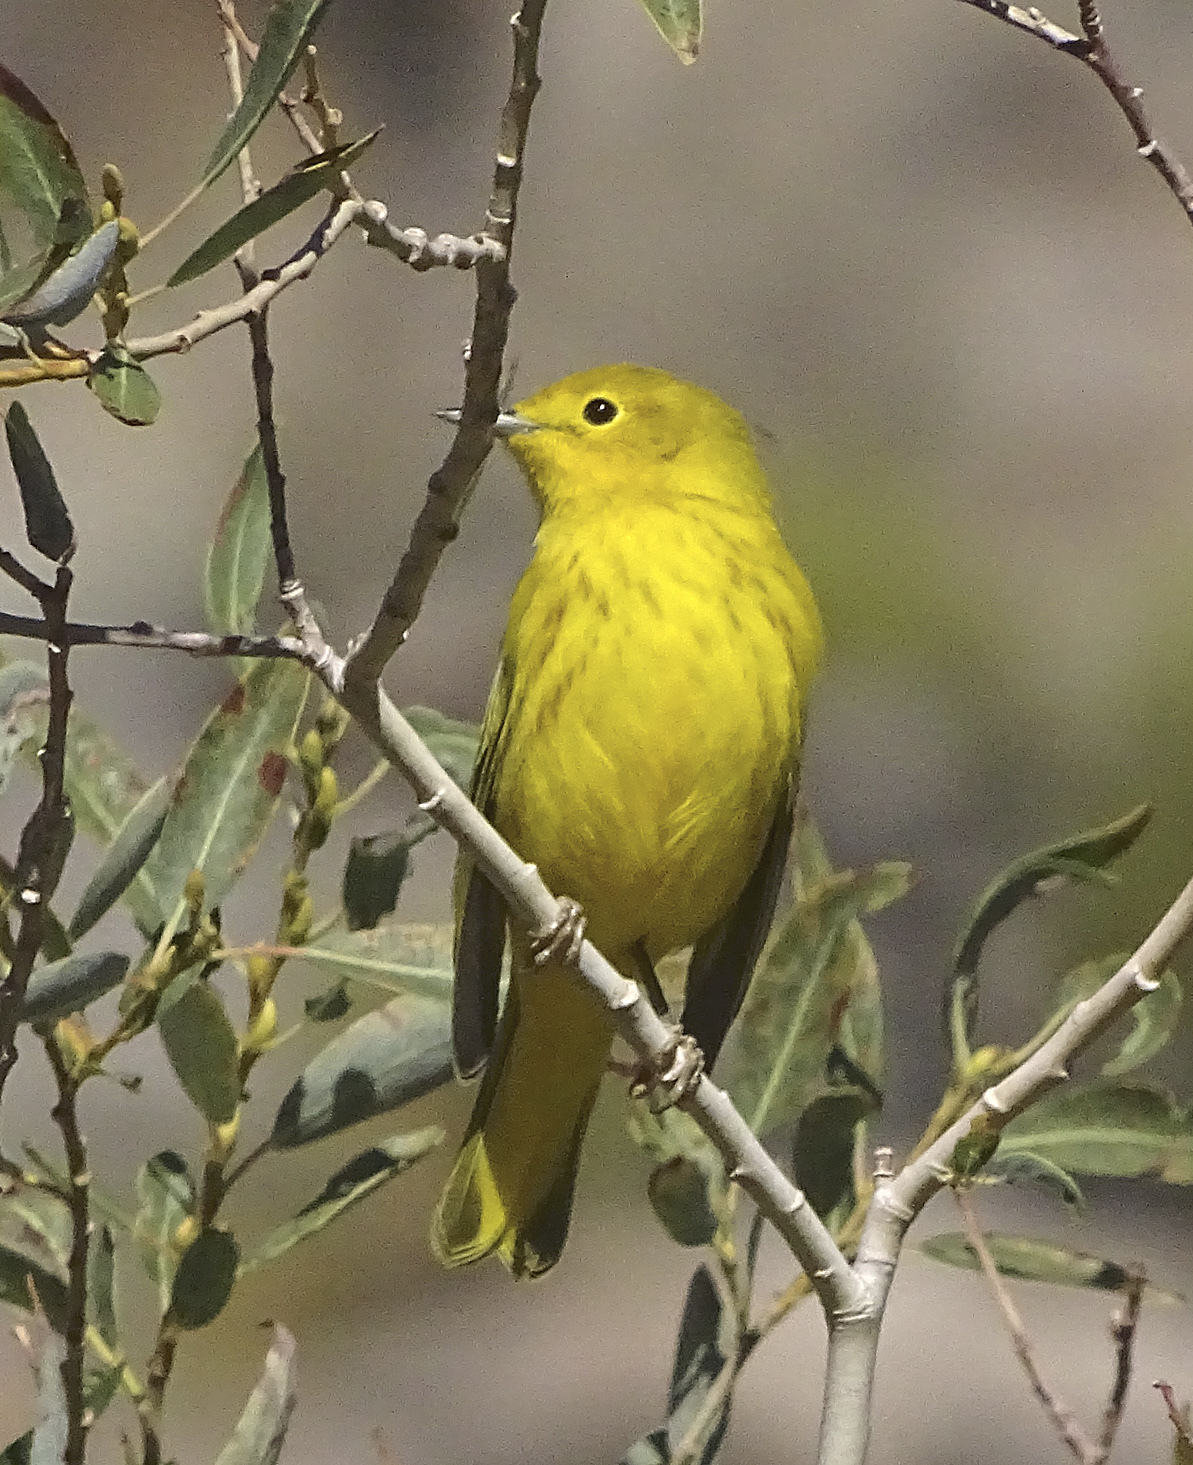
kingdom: Animalia
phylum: Chordata
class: Aves
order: Passeriformes
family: Parulidae
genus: Setophaga
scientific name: Setophaga petechia
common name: Yellow warbler
